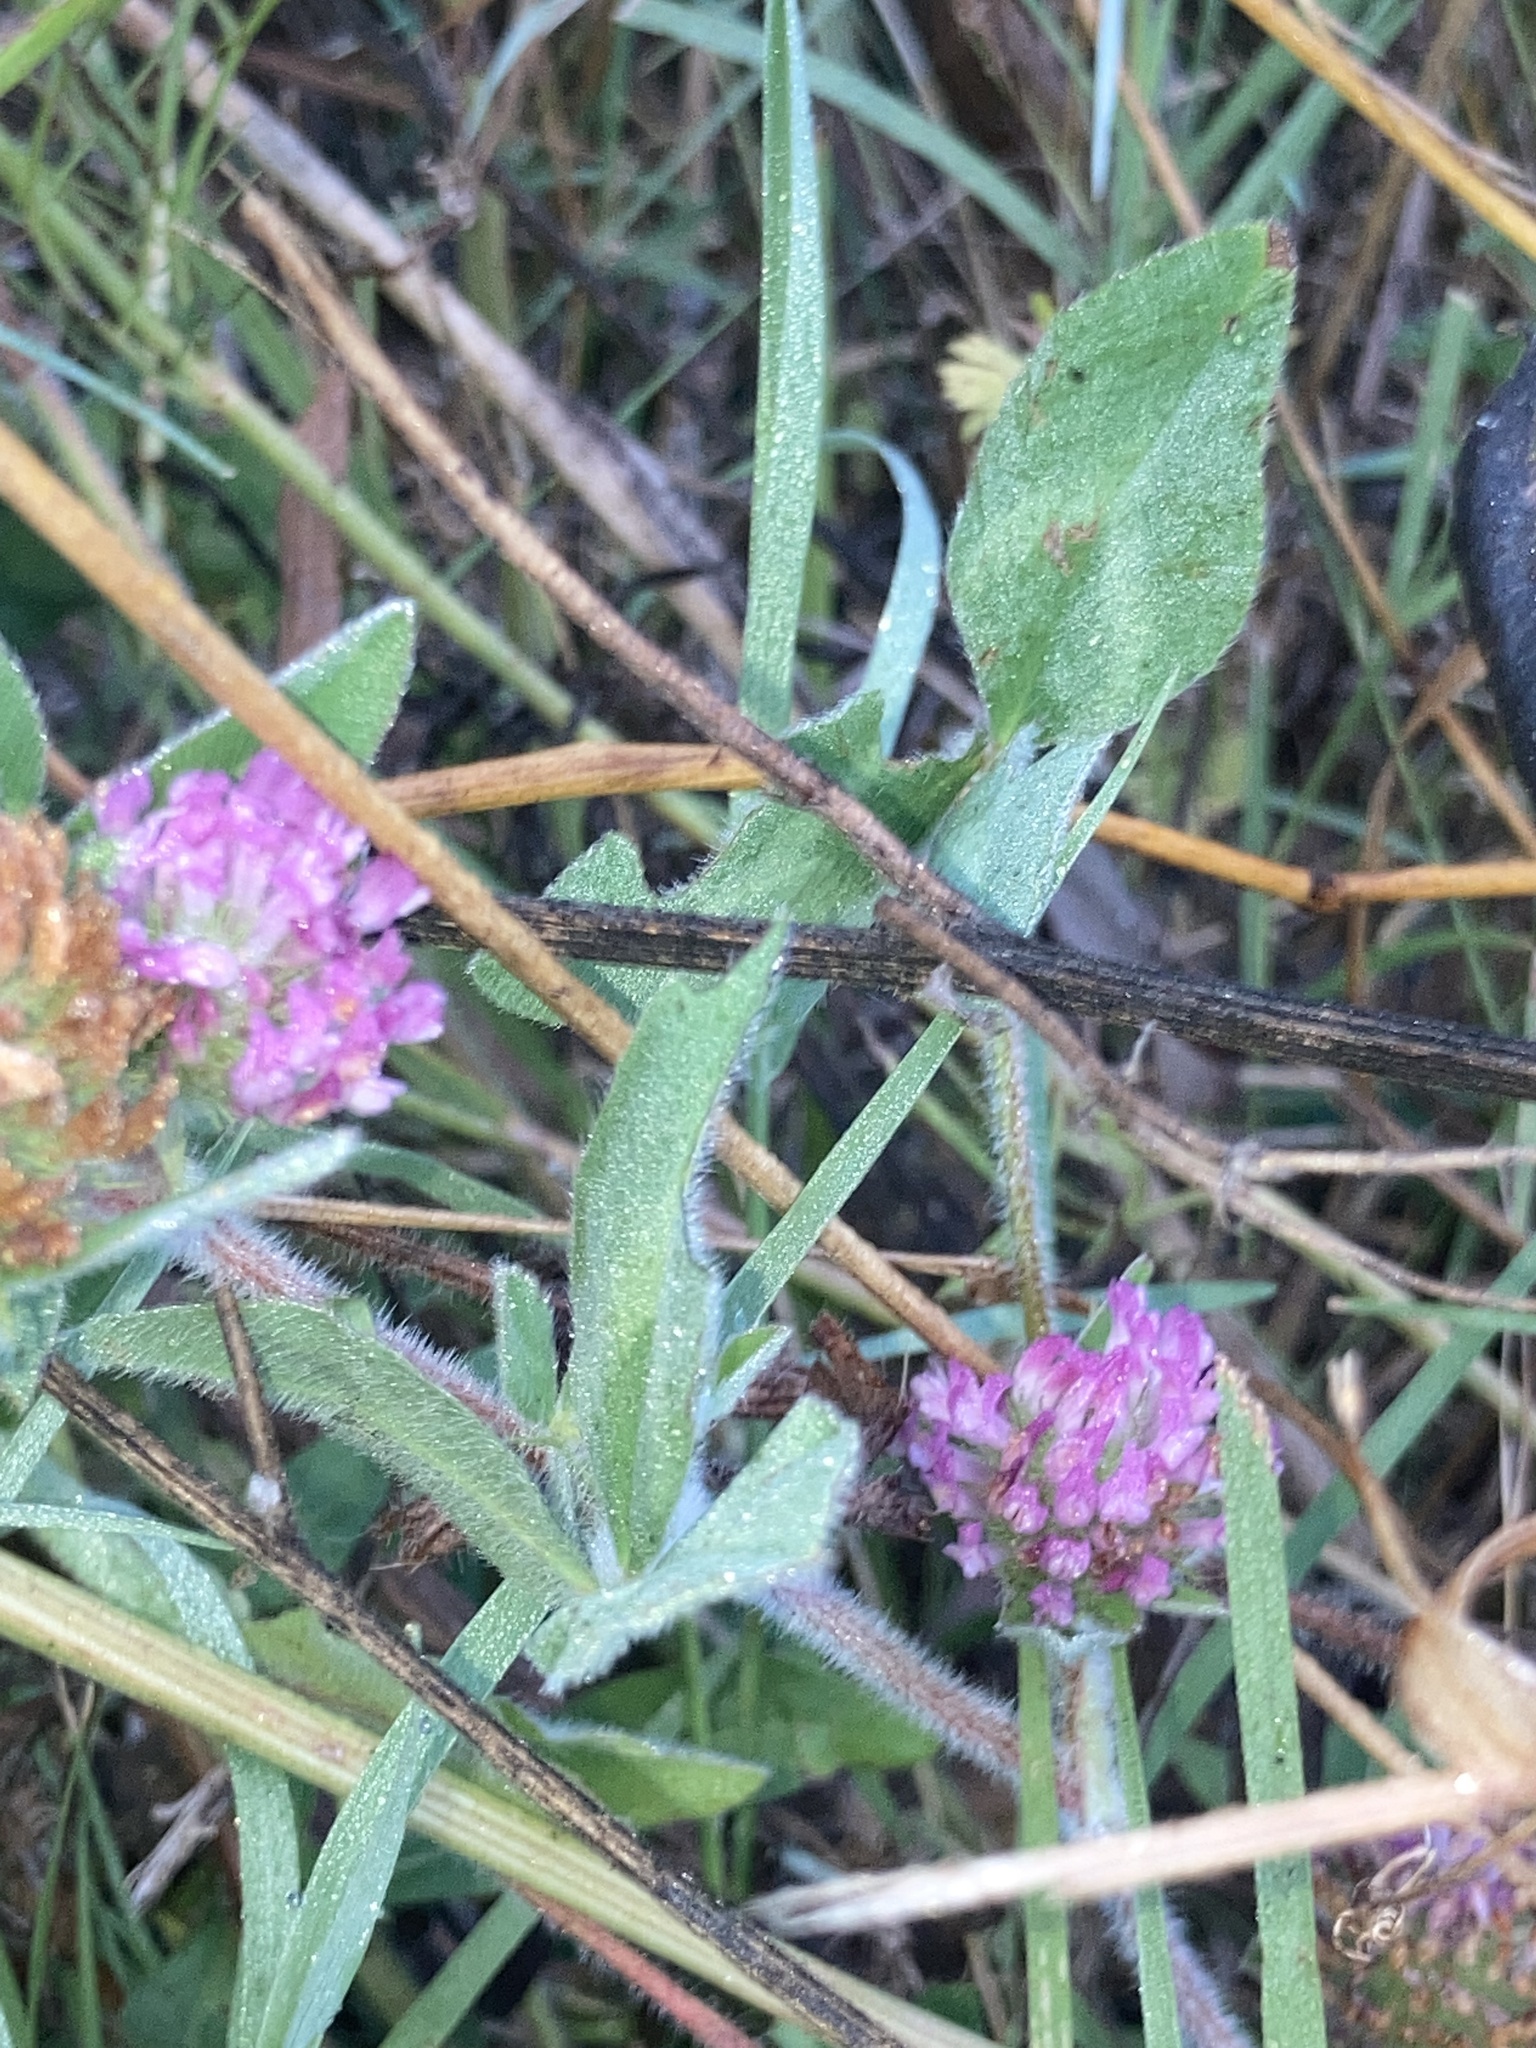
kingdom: Plantae
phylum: Tracheophyta
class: Magnoliopsida
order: Fabales
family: Fabaceae
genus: Trifolium
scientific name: Trifolium pratense
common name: Red clover
